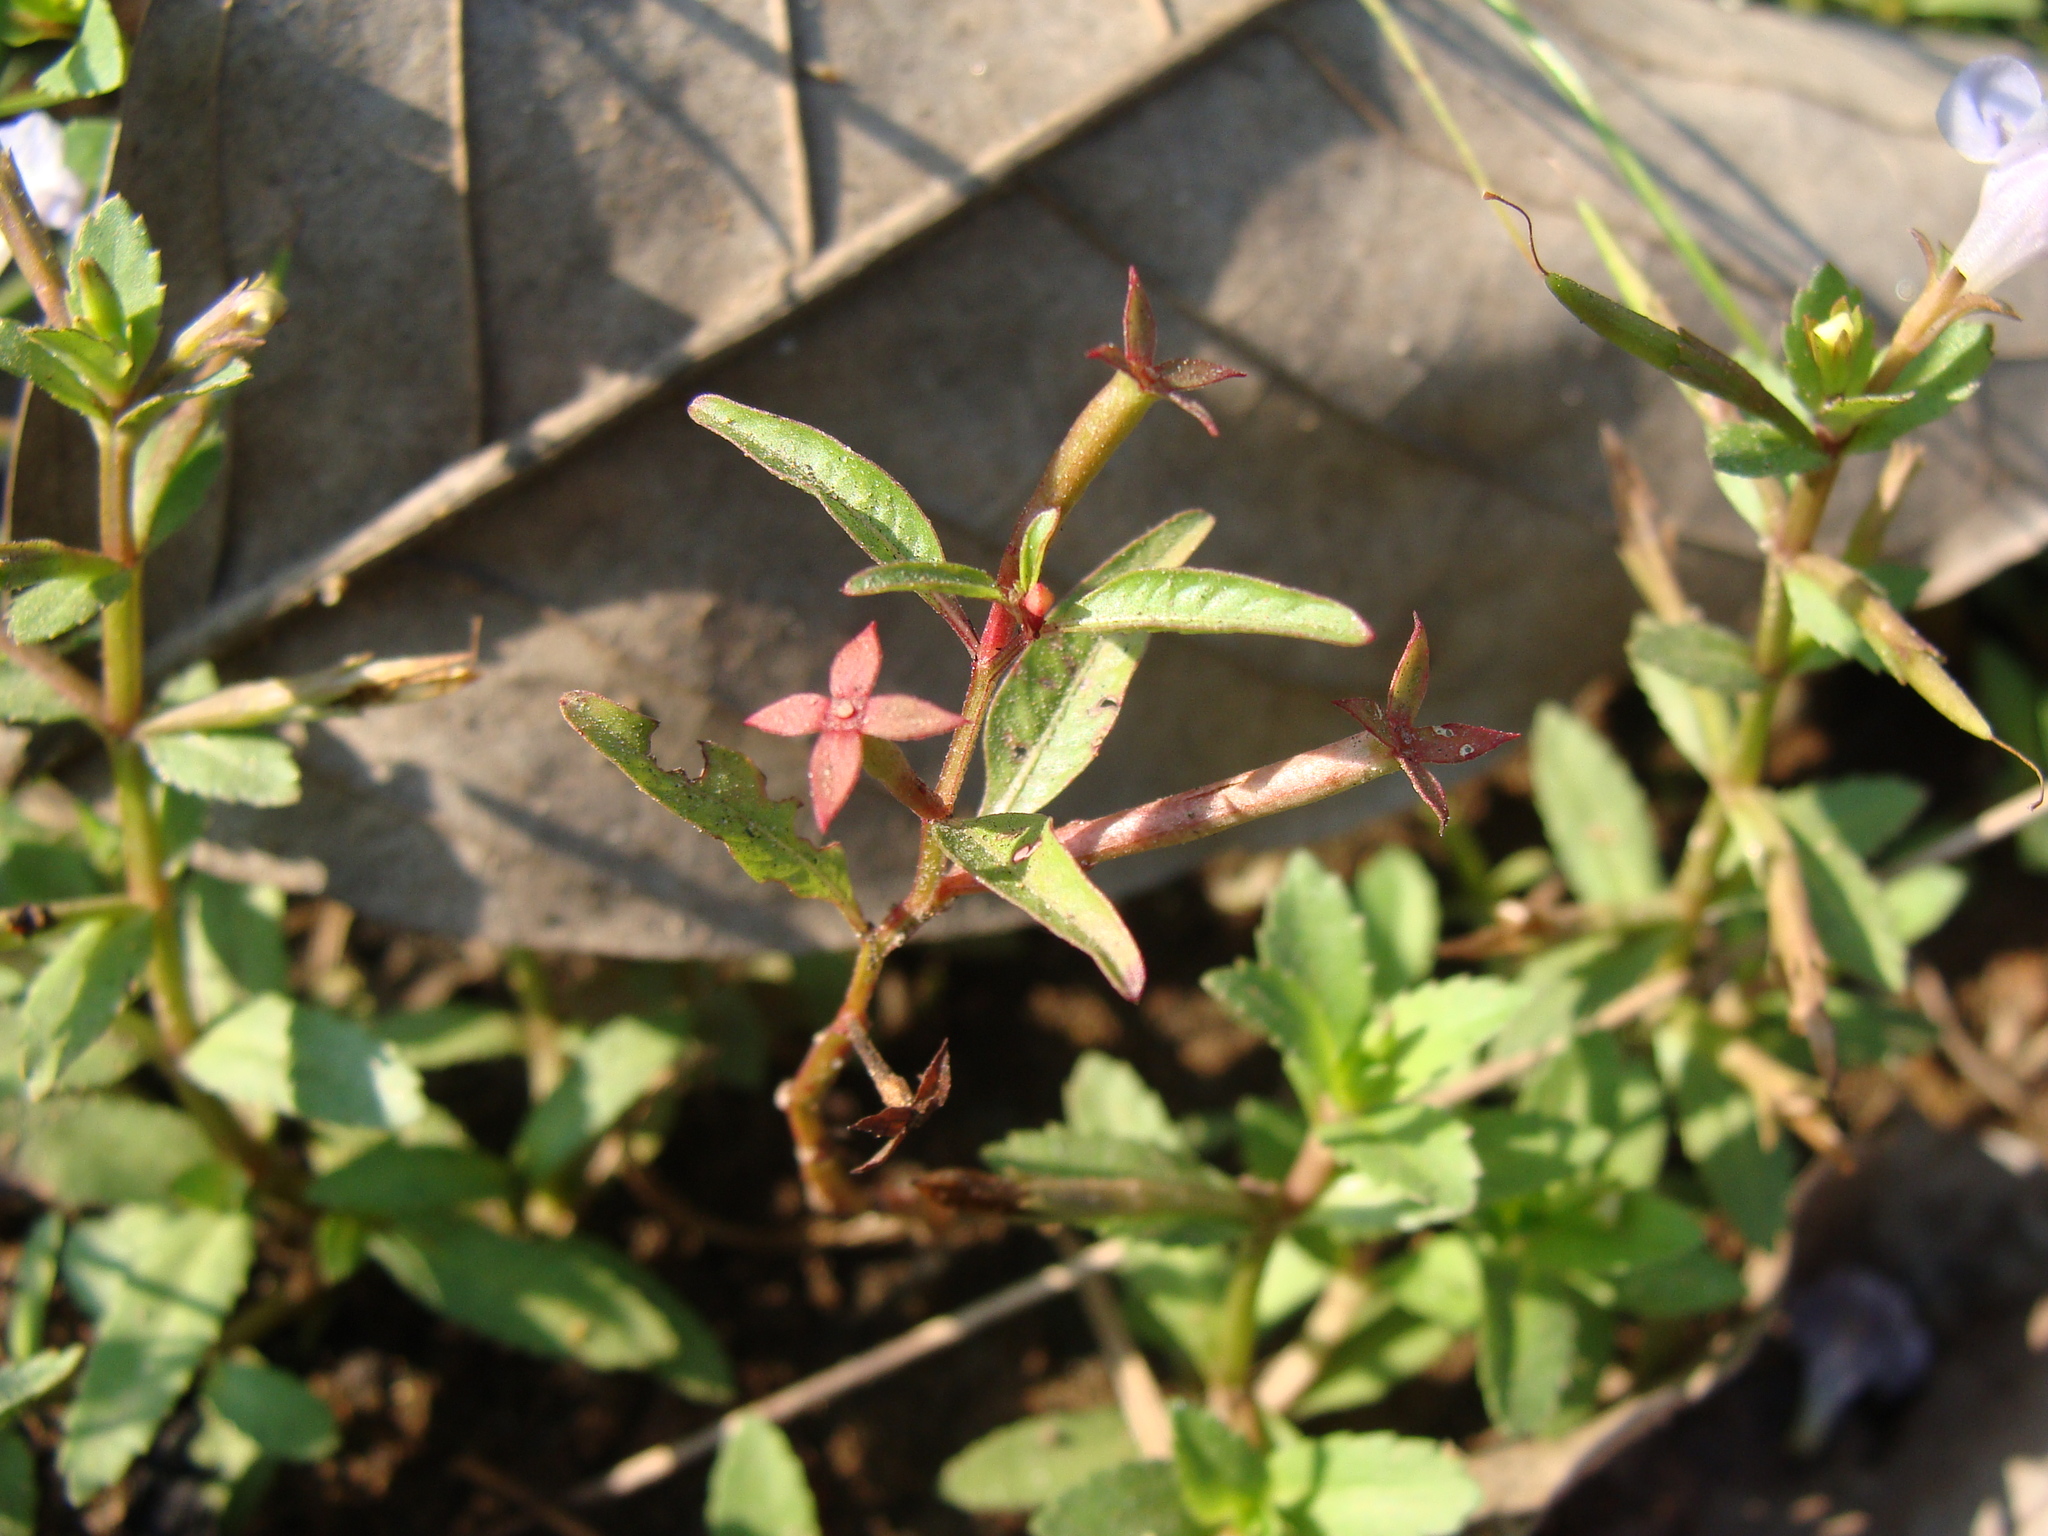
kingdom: Plantae
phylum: Tracheophyta
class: Magnoliopsida
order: Myrtales
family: Onagraceae
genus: Ludwigia
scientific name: Ludwigia hyssopifolia
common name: Linear leaf water primrose
